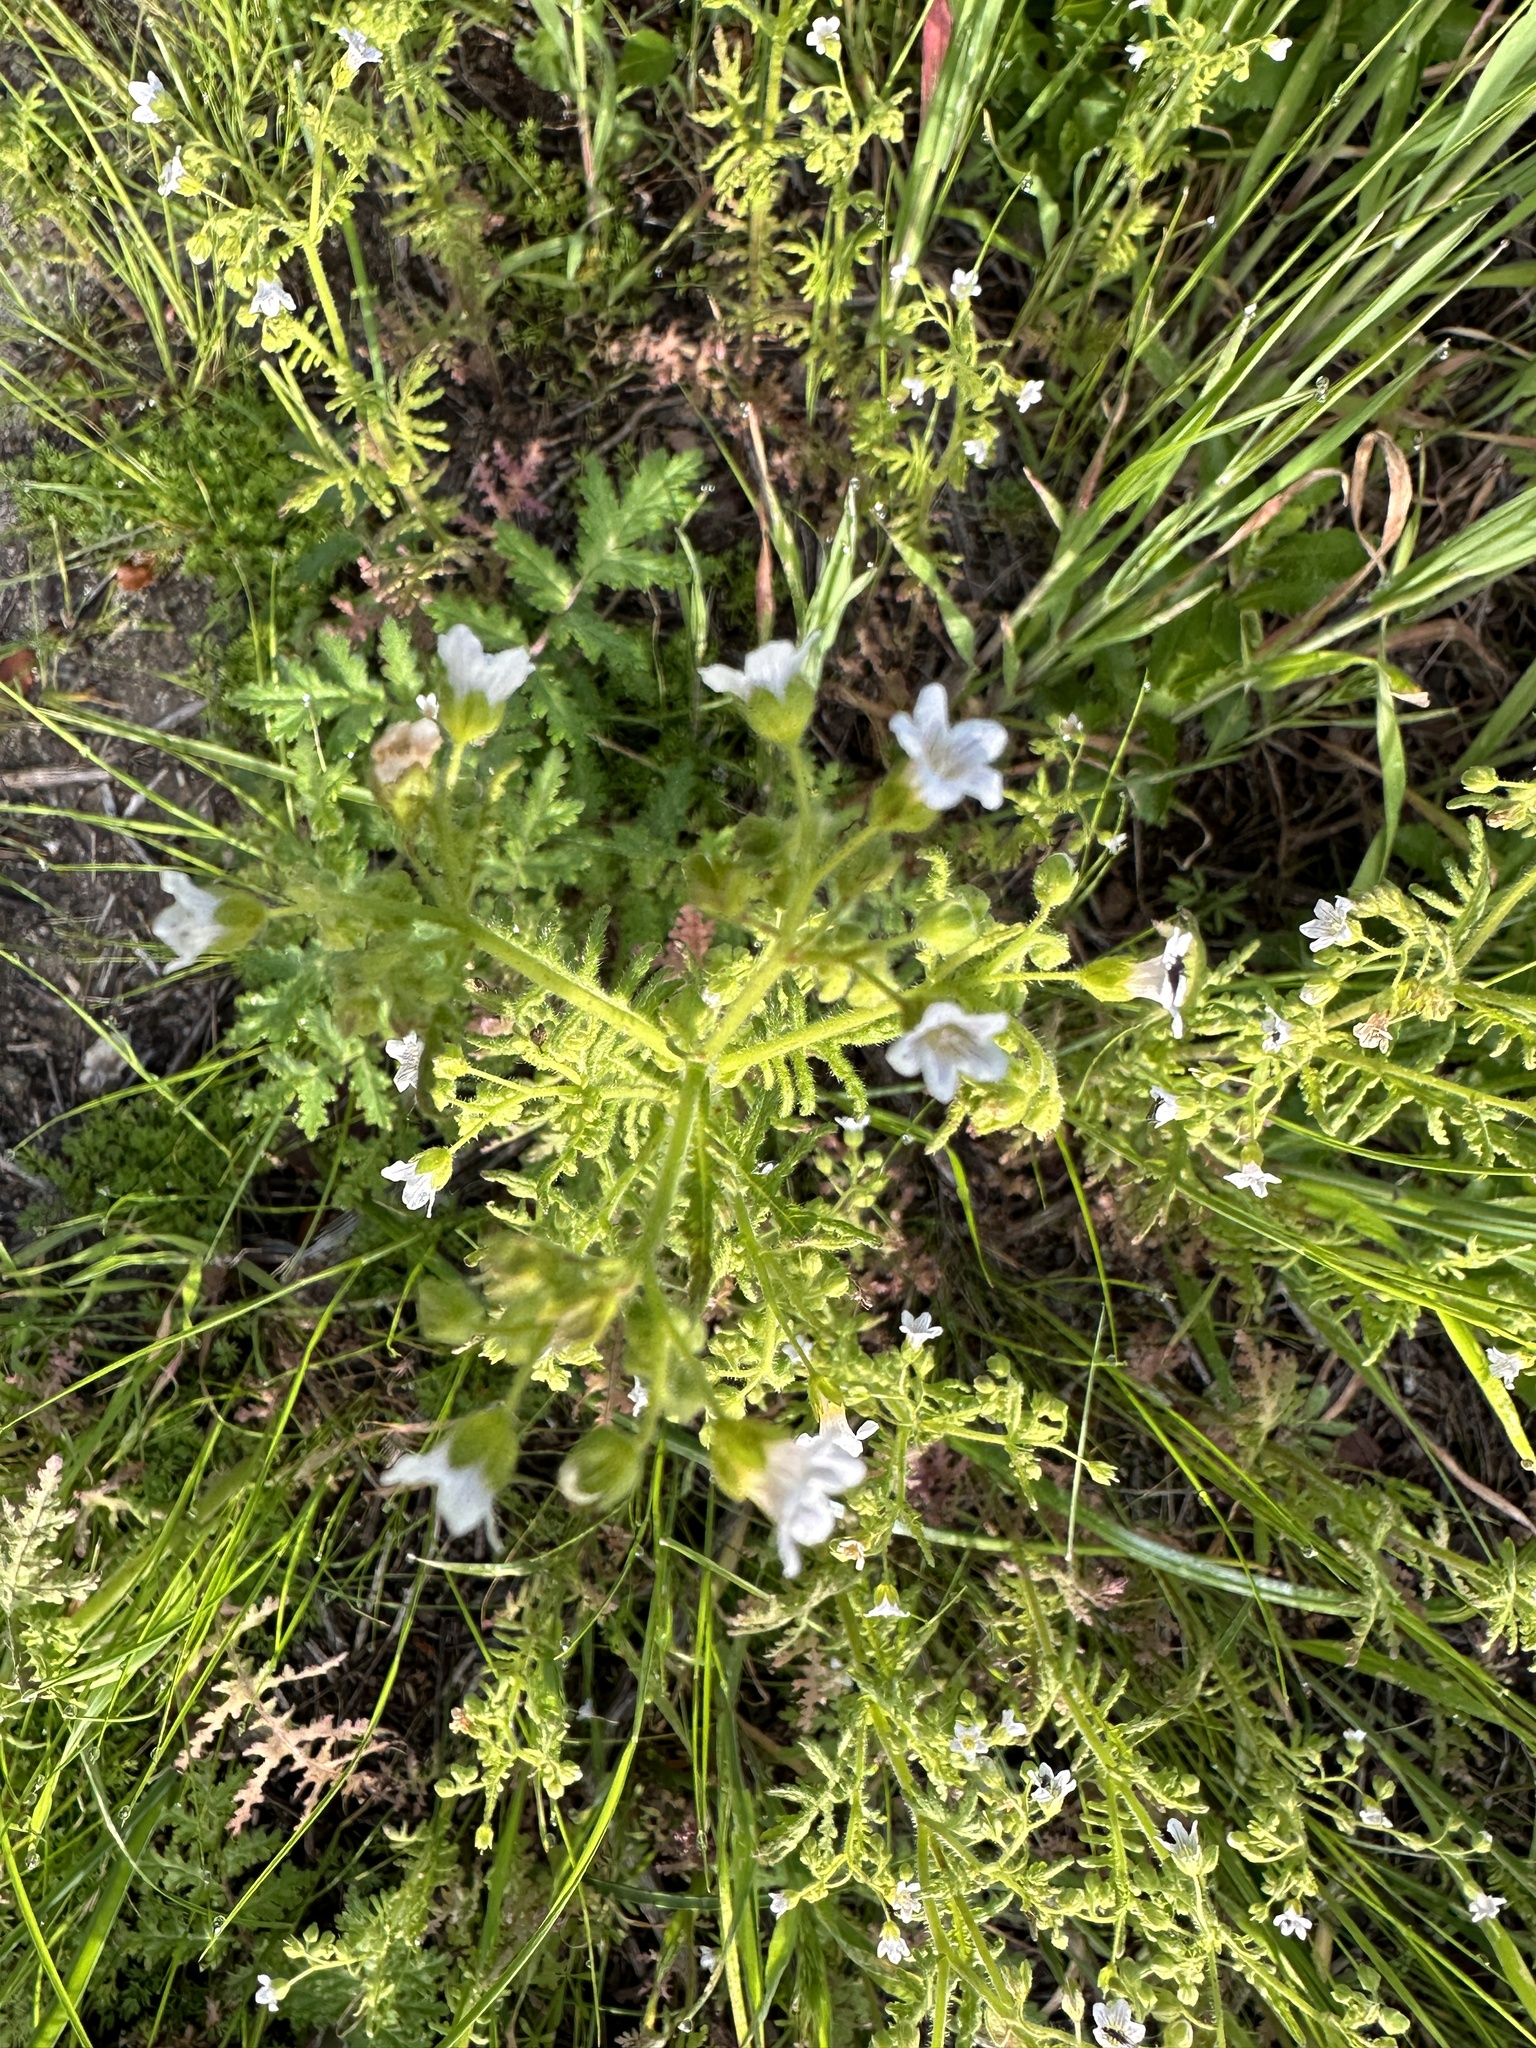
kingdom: Plantae
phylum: Tracheophyta
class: Magnoliopsida
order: Boraginales
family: Hydrophyllaceae
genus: Eucrypta
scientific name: Eucrypta chrysanthemifolia
